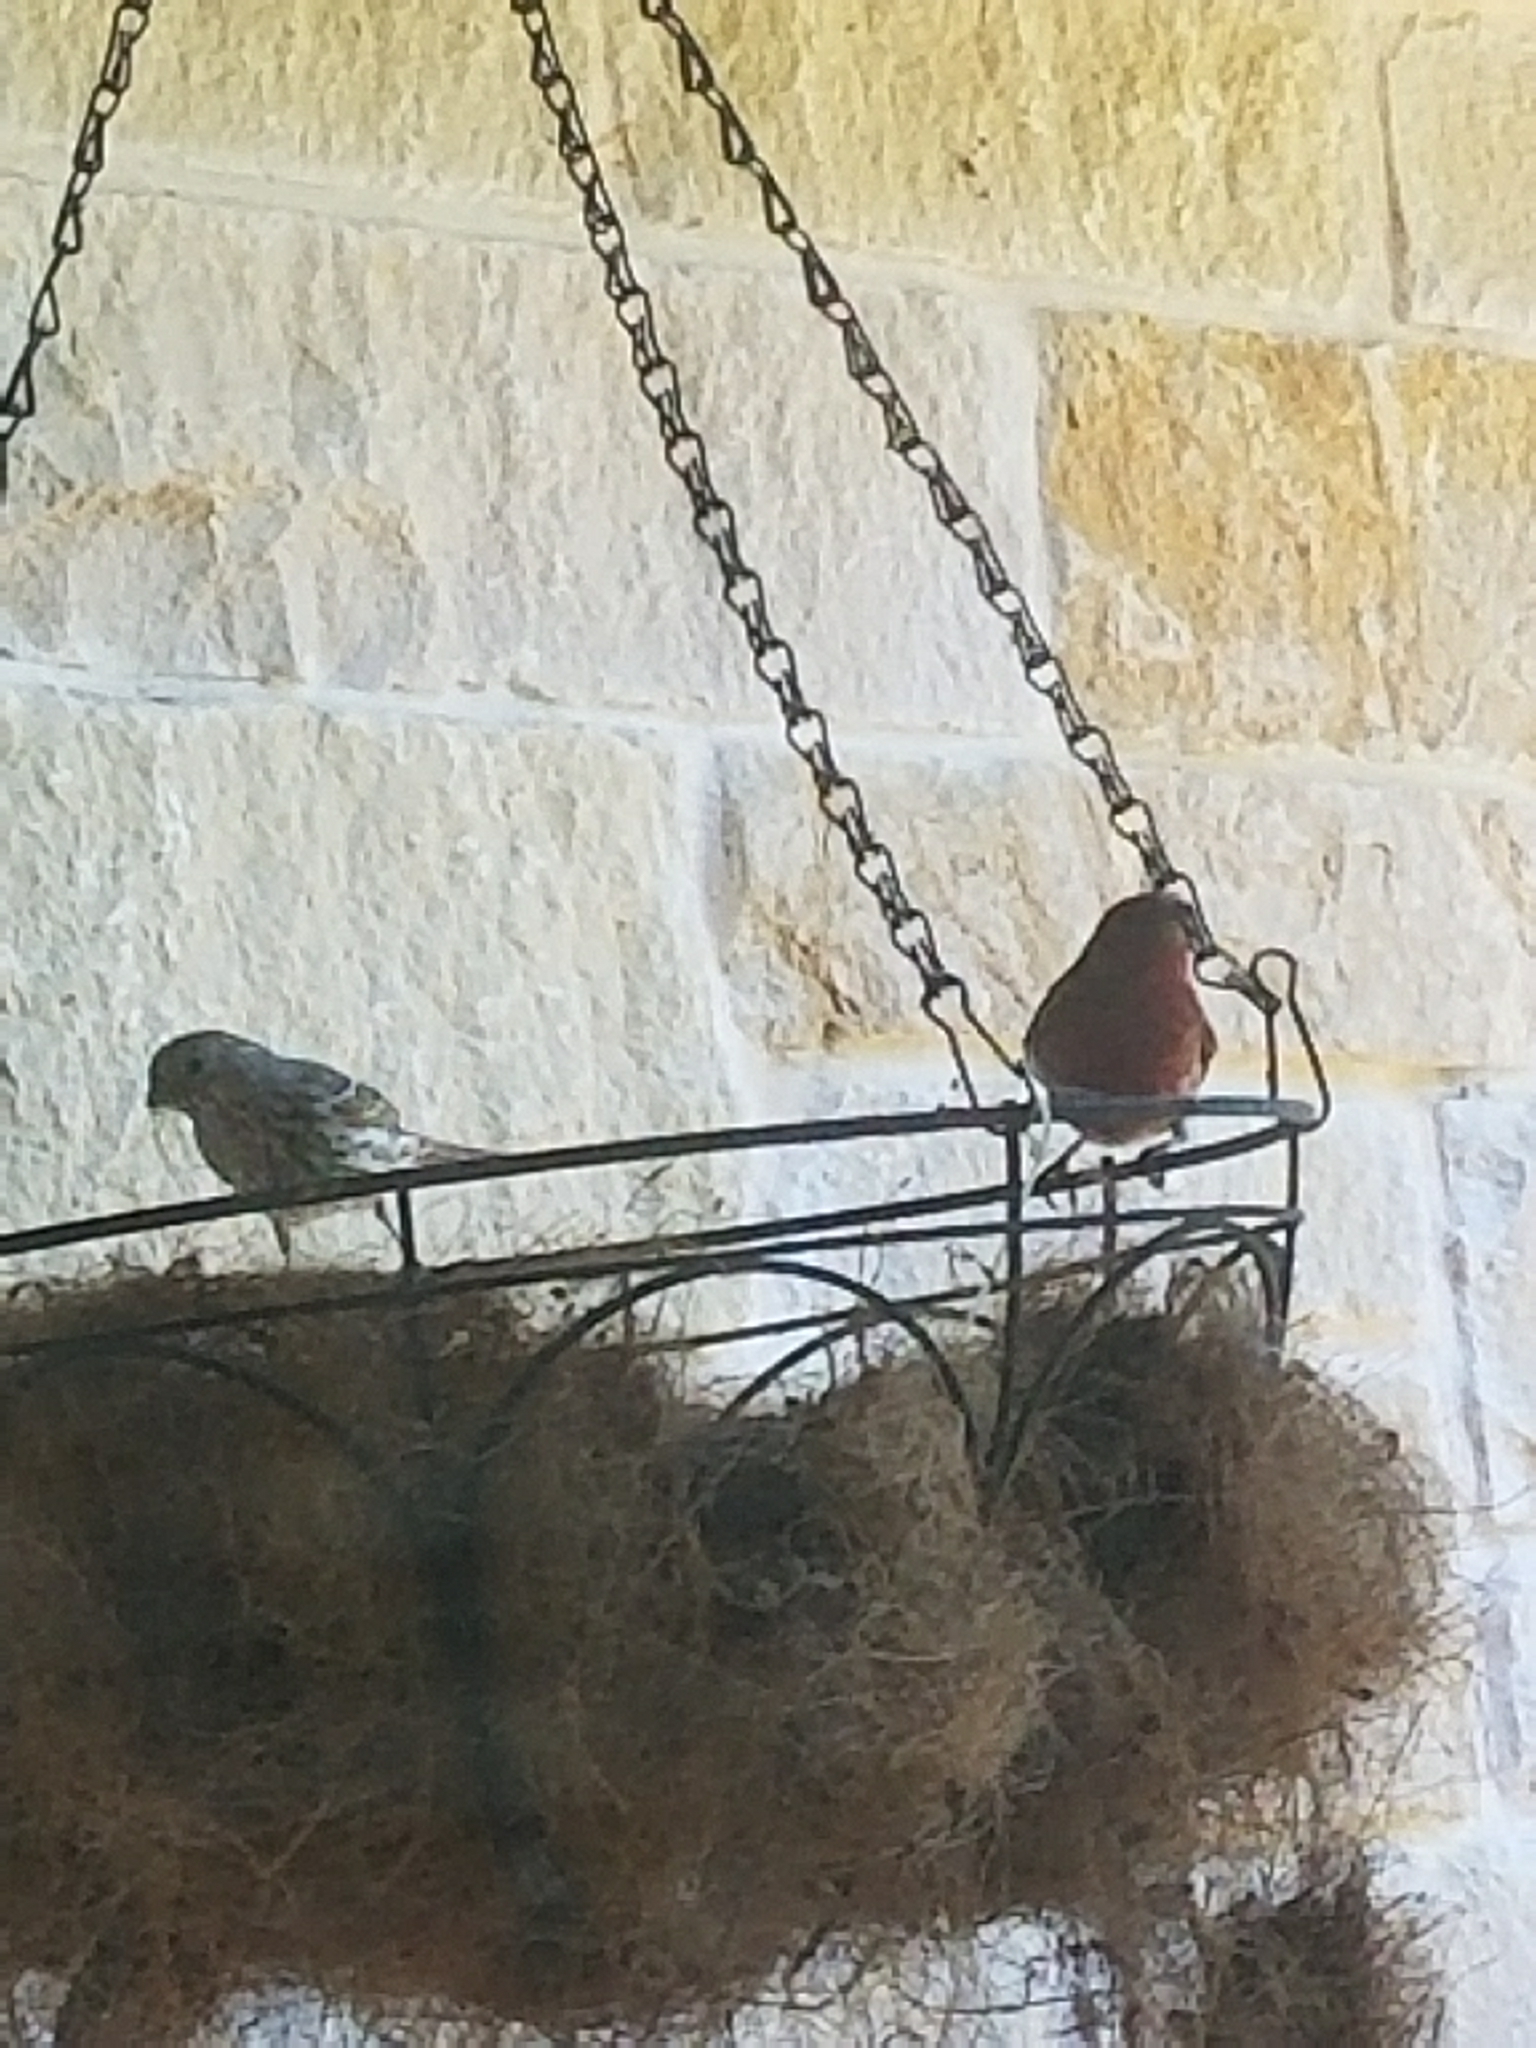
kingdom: Animalia
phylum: Chordata
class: Aves
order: Passeriformes
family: Fringillidae
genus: Haemorhous
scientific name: Haemorhous mexicanus
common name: House finch
